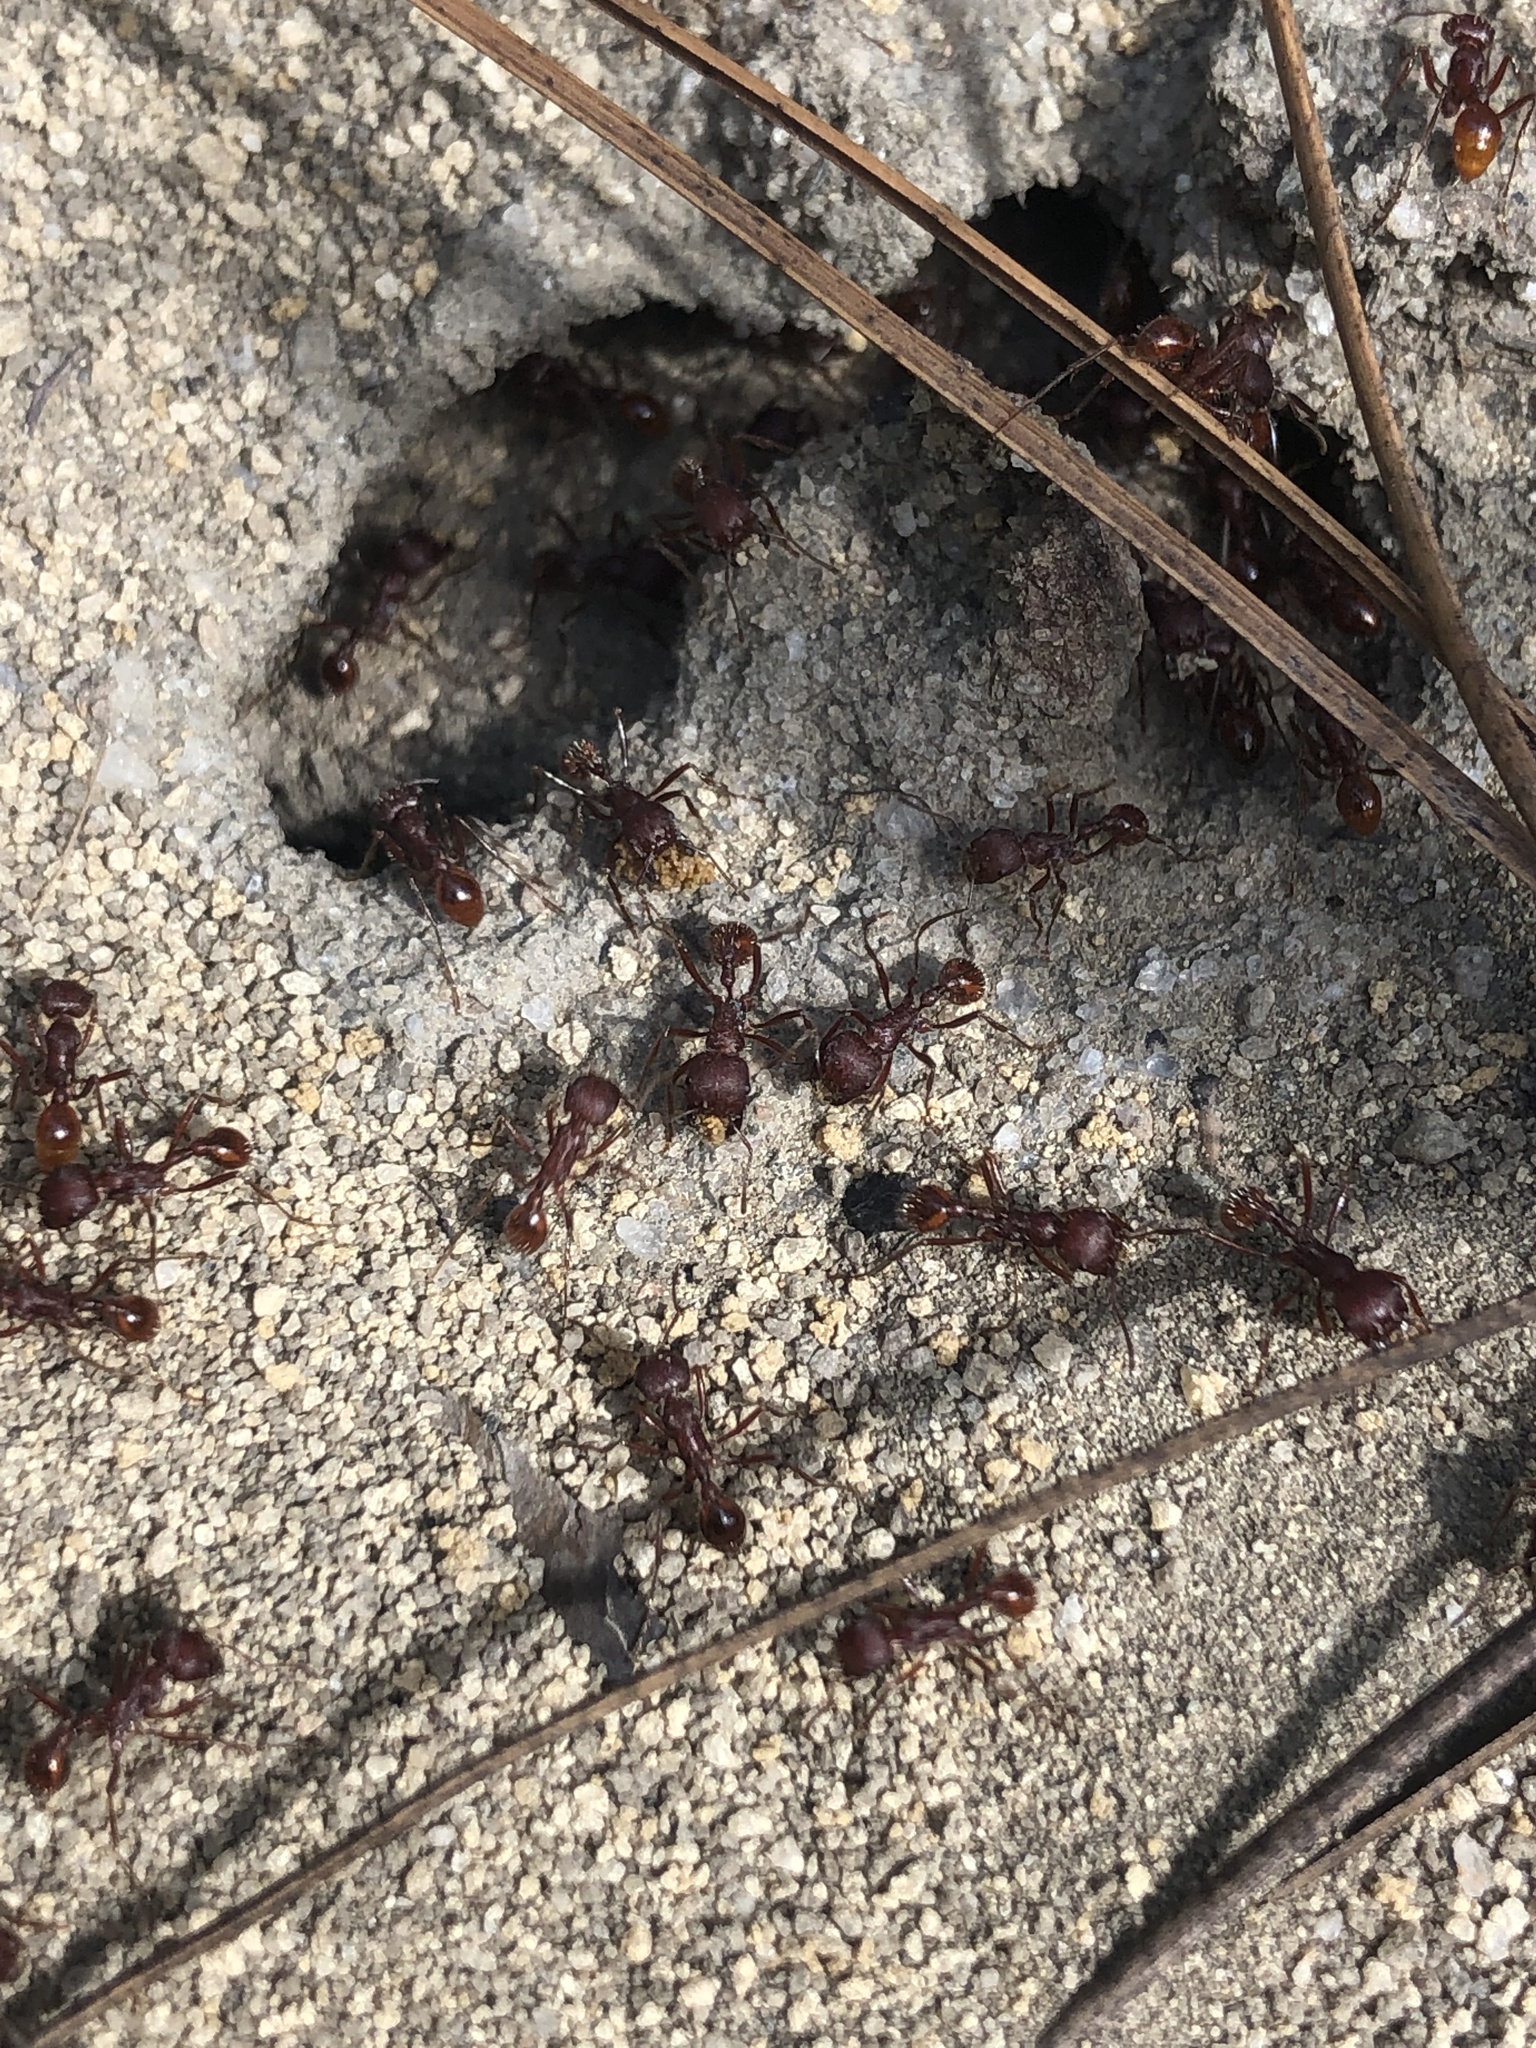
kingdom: Animalia
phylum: Arthropoda
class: Insecta
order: Hymenoptera
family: Formicidae
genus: Pogonomyrmex
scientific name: Pogonomyrmex badius
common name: Florida harvester ant
